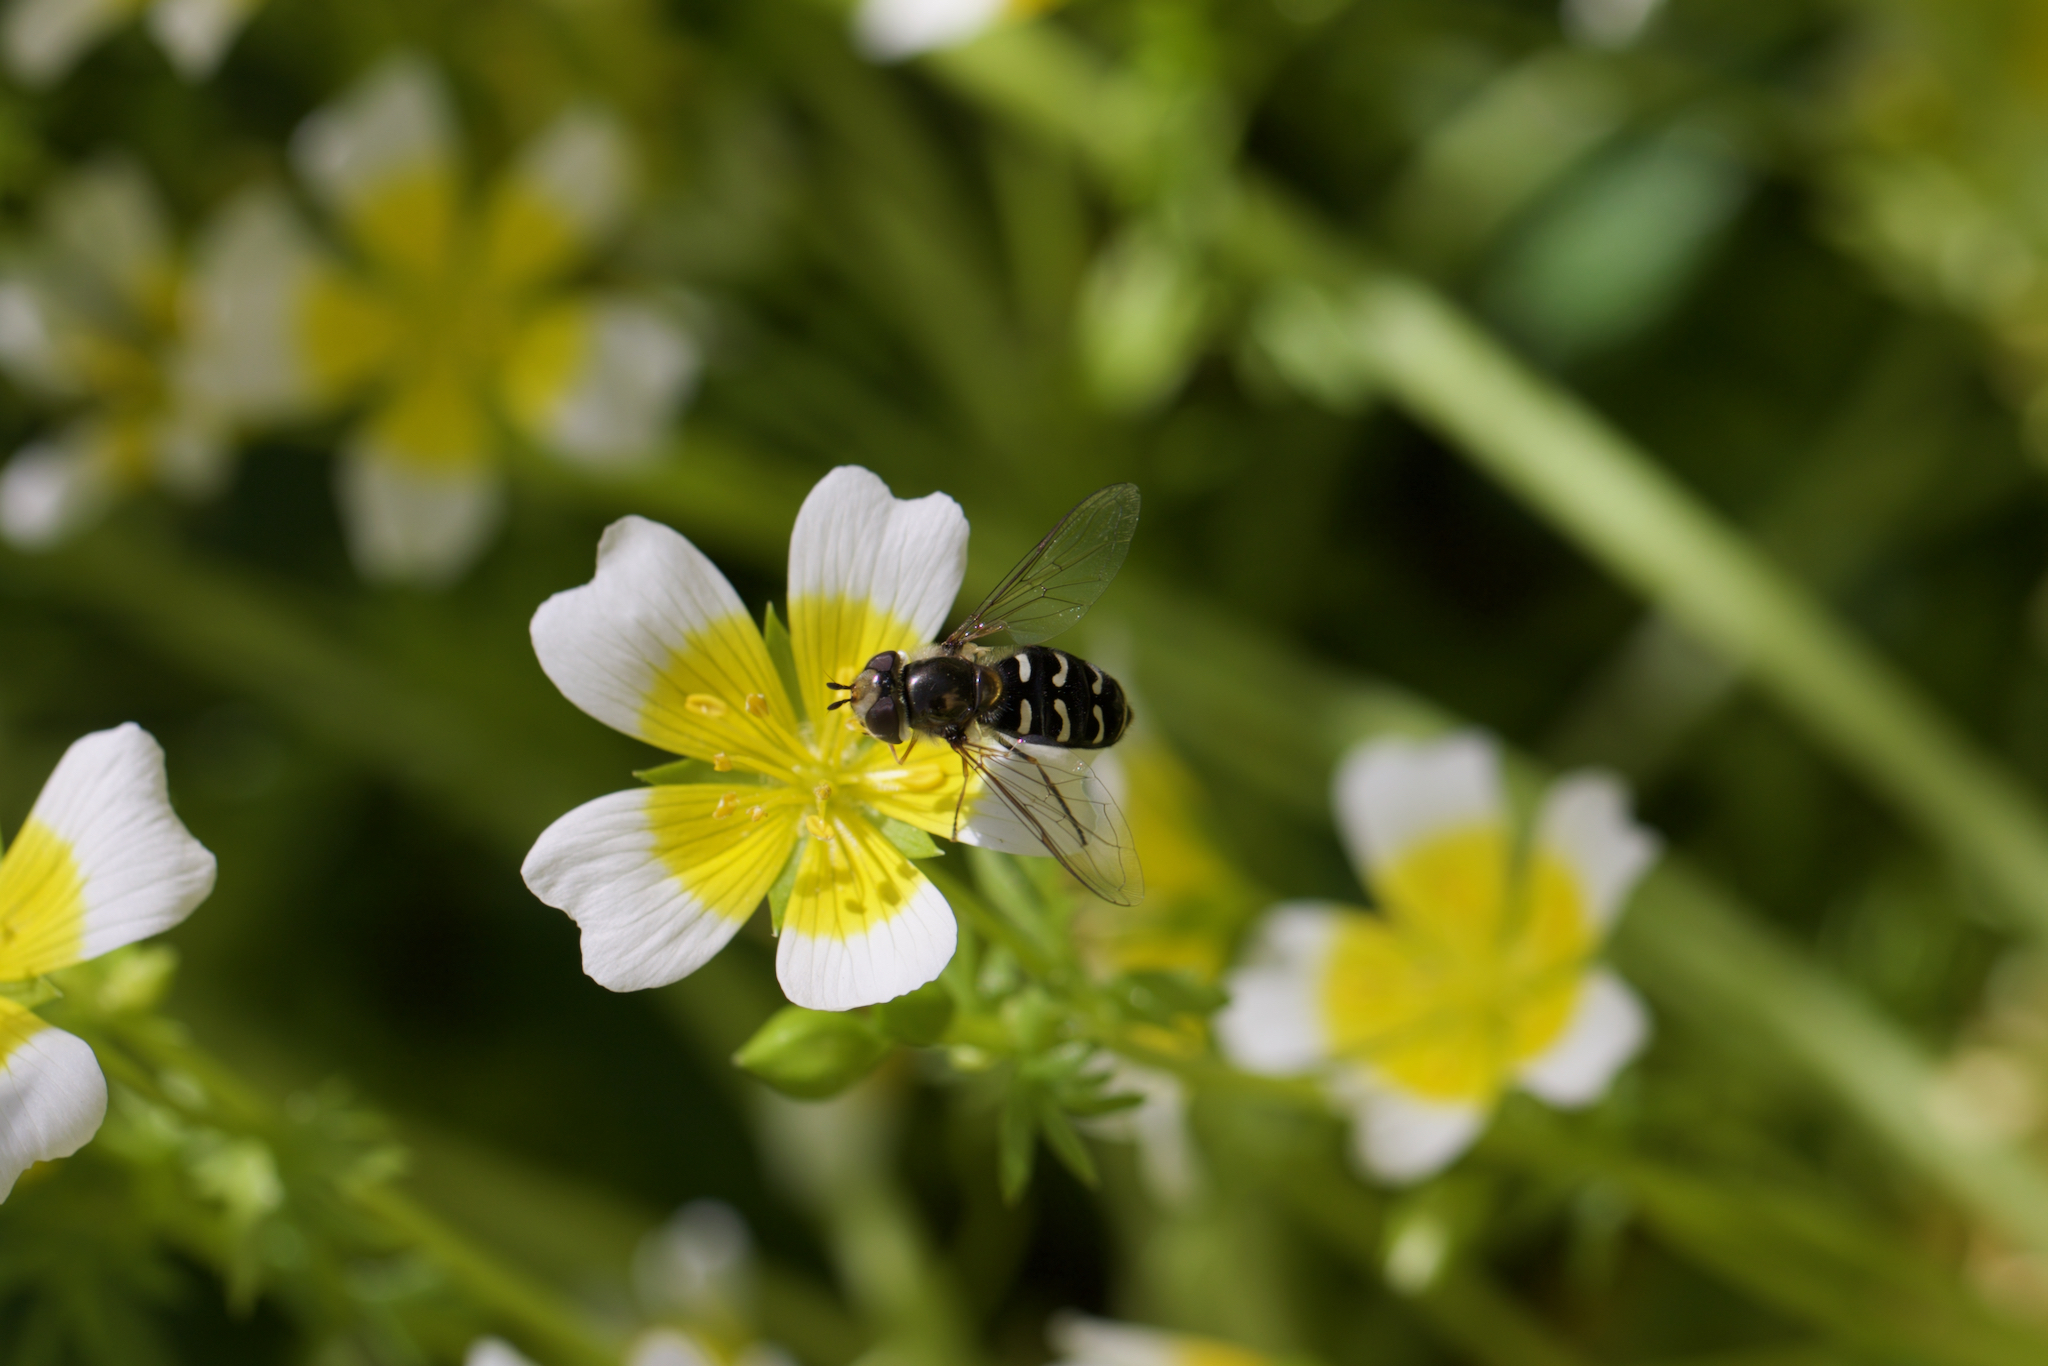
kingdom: Animalia
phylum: Arthropoda
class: Insecta
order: Diptera
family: Syrphidae
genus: Scaeva
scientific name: Scaeva affinis
